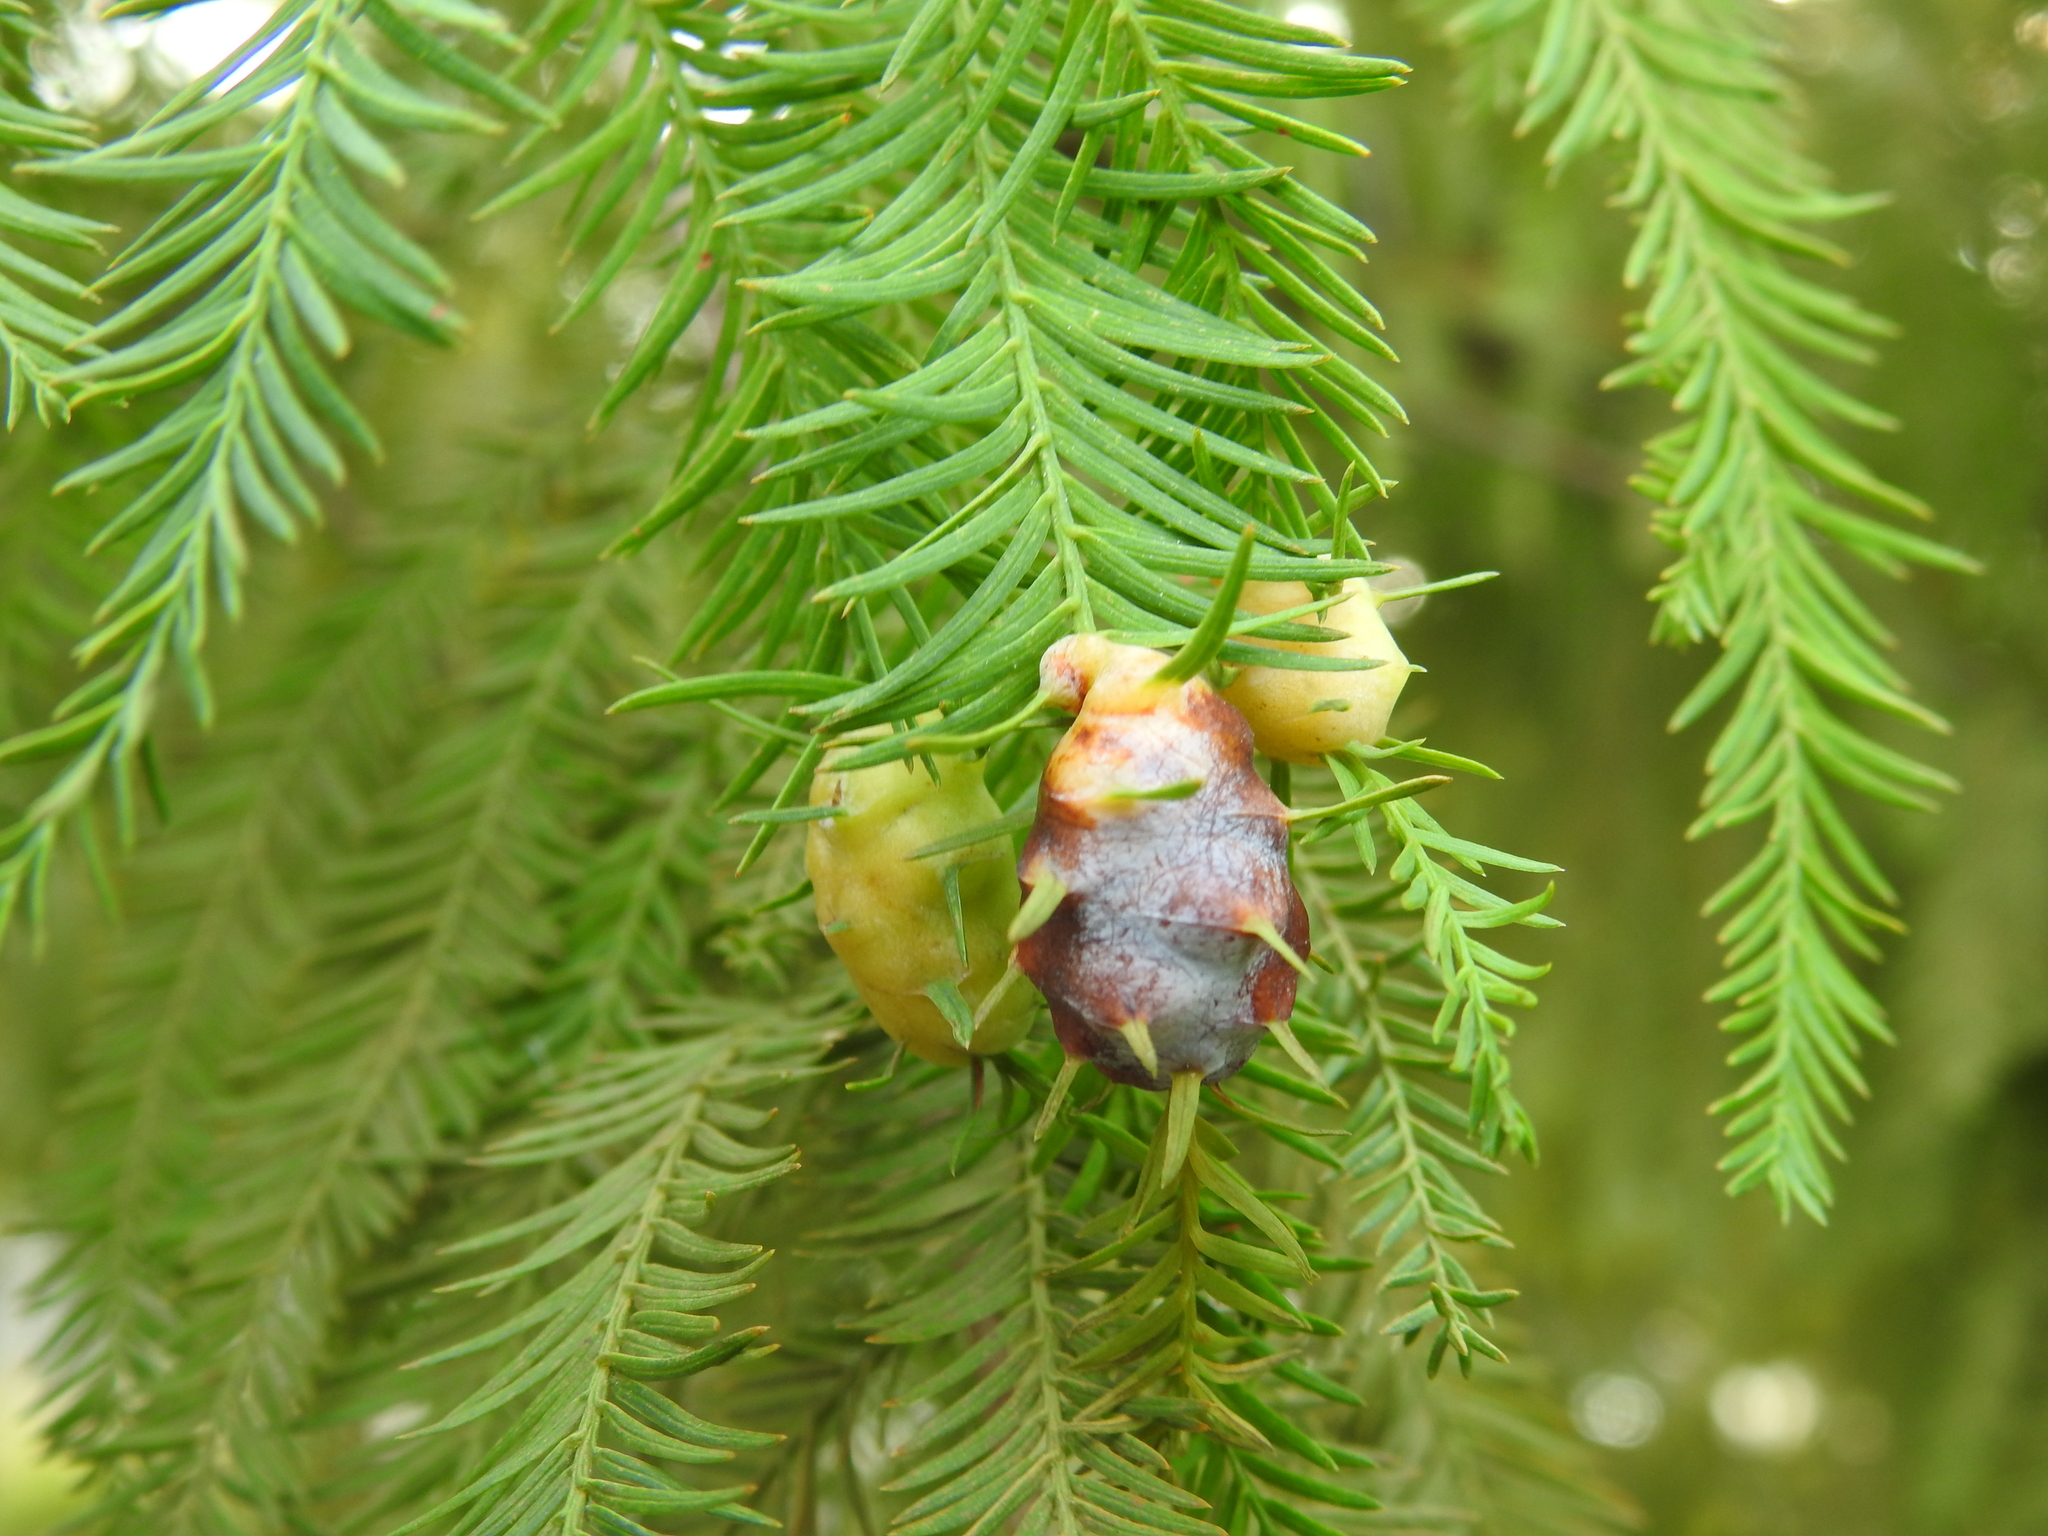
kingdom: Animalia
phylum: Arthropoda
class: Insecta
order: Diptera
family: Cecidomyiidae
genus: Taxodiomyia
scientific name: Taxodiomyia cupressiananassa
